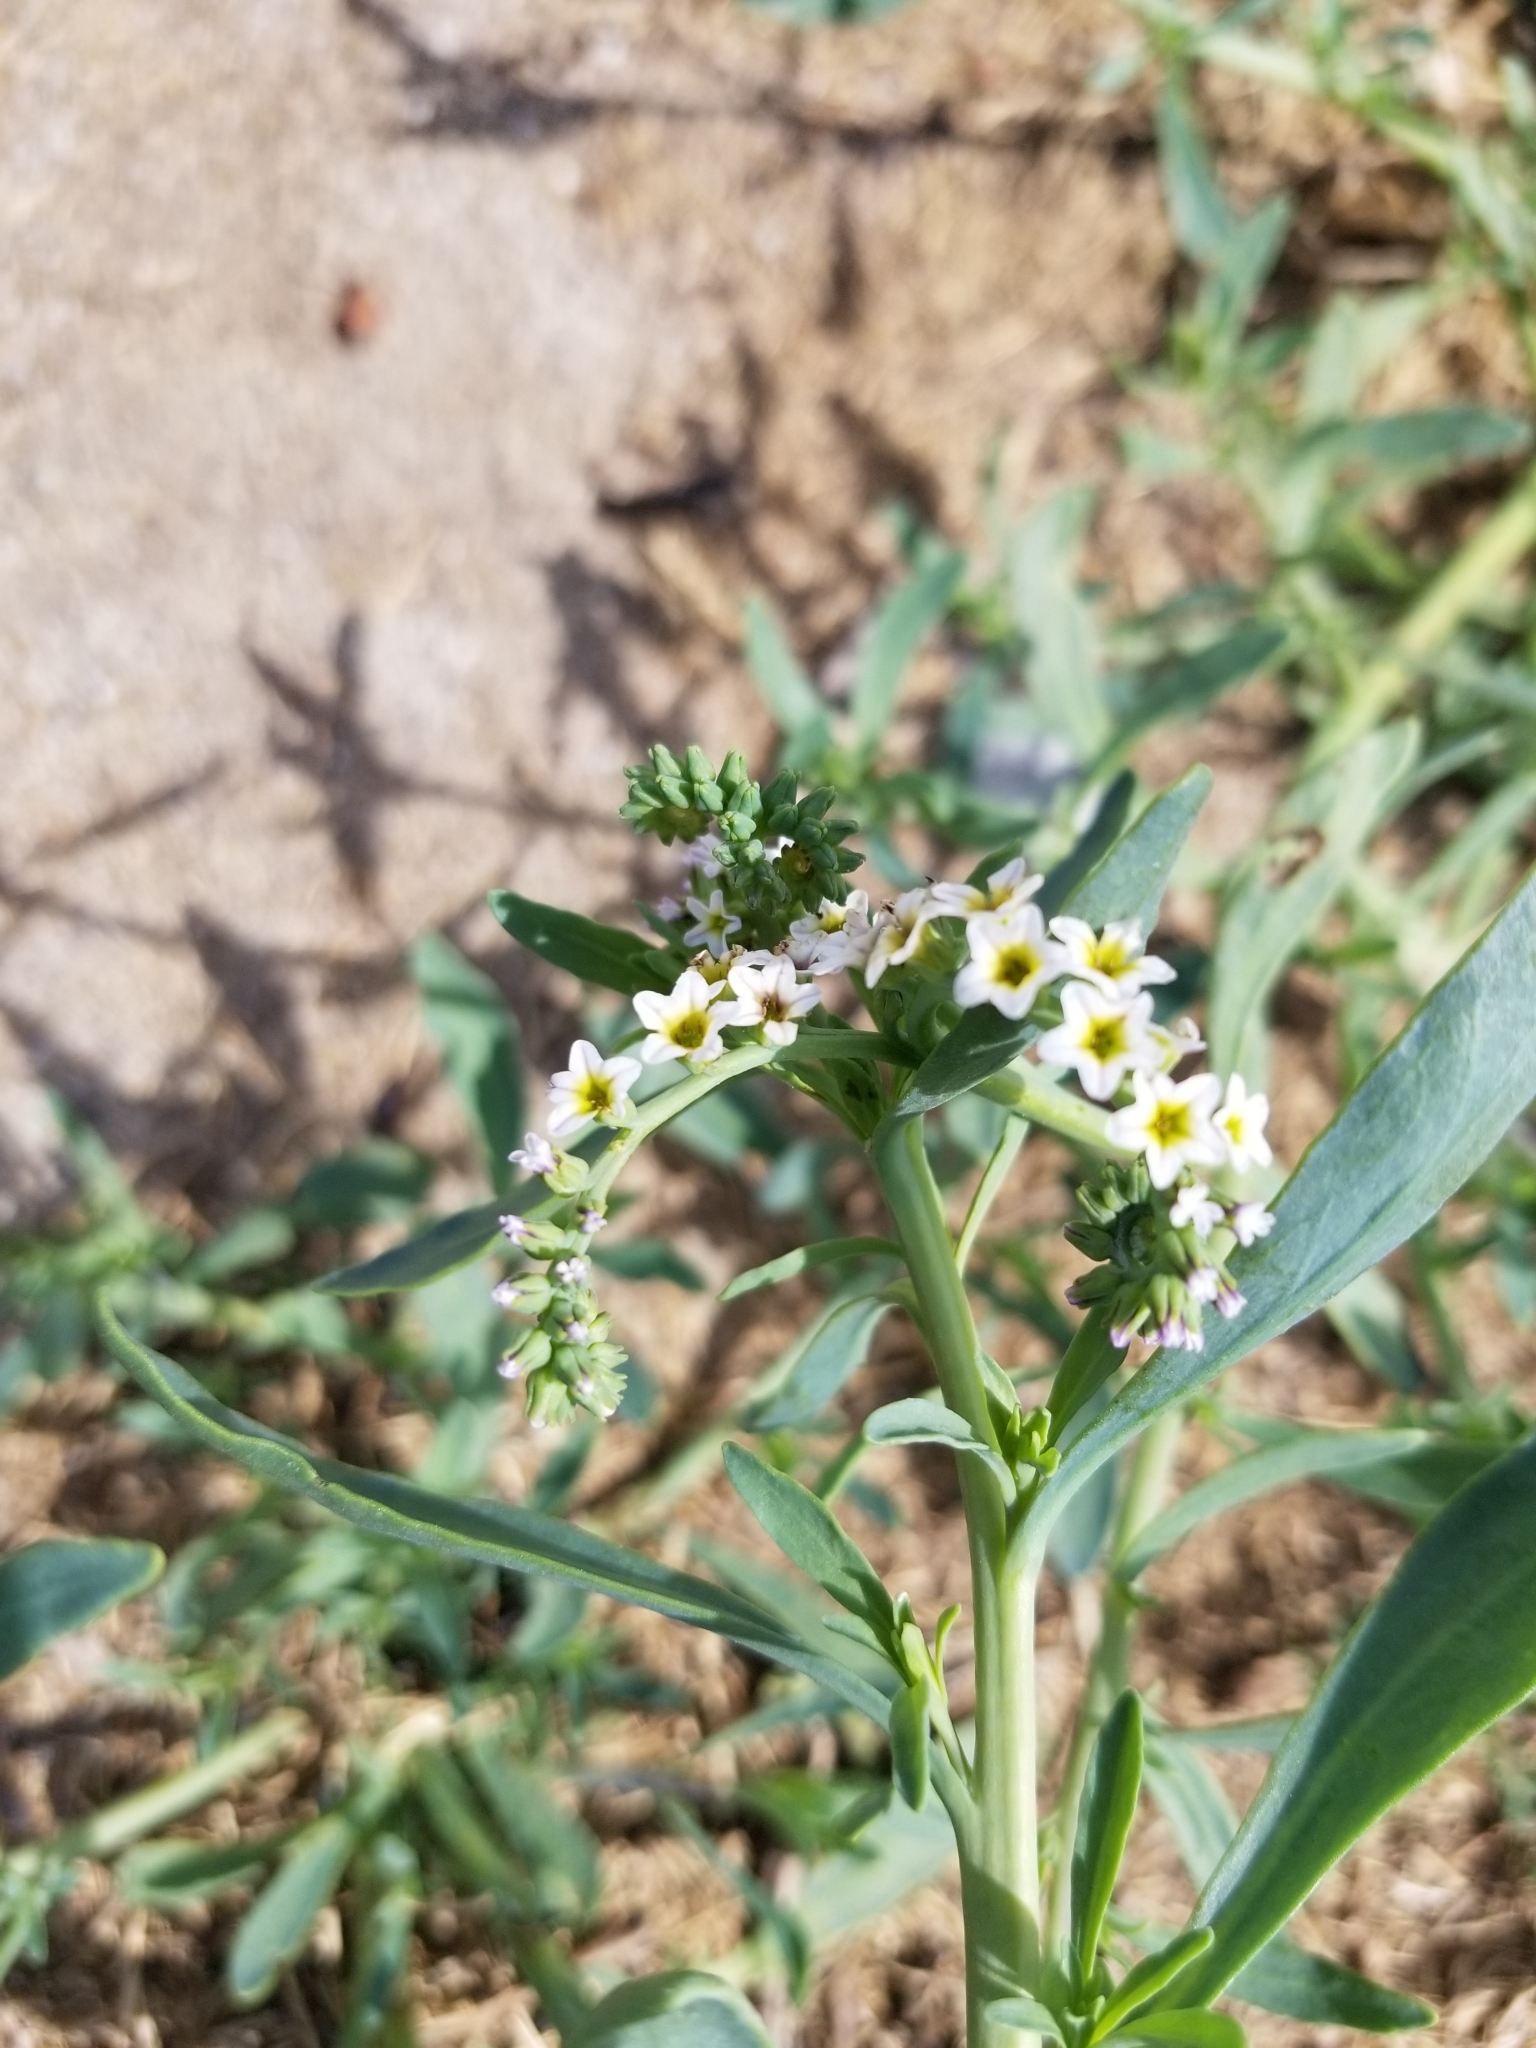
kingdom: Plantae
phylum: Tracheophyta
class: Magnoliopsida
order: Boraginales
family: Heliotropiaceae
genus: Heliotropium
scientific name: Heliotropium curassavicum
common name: Seaside heliotrope
